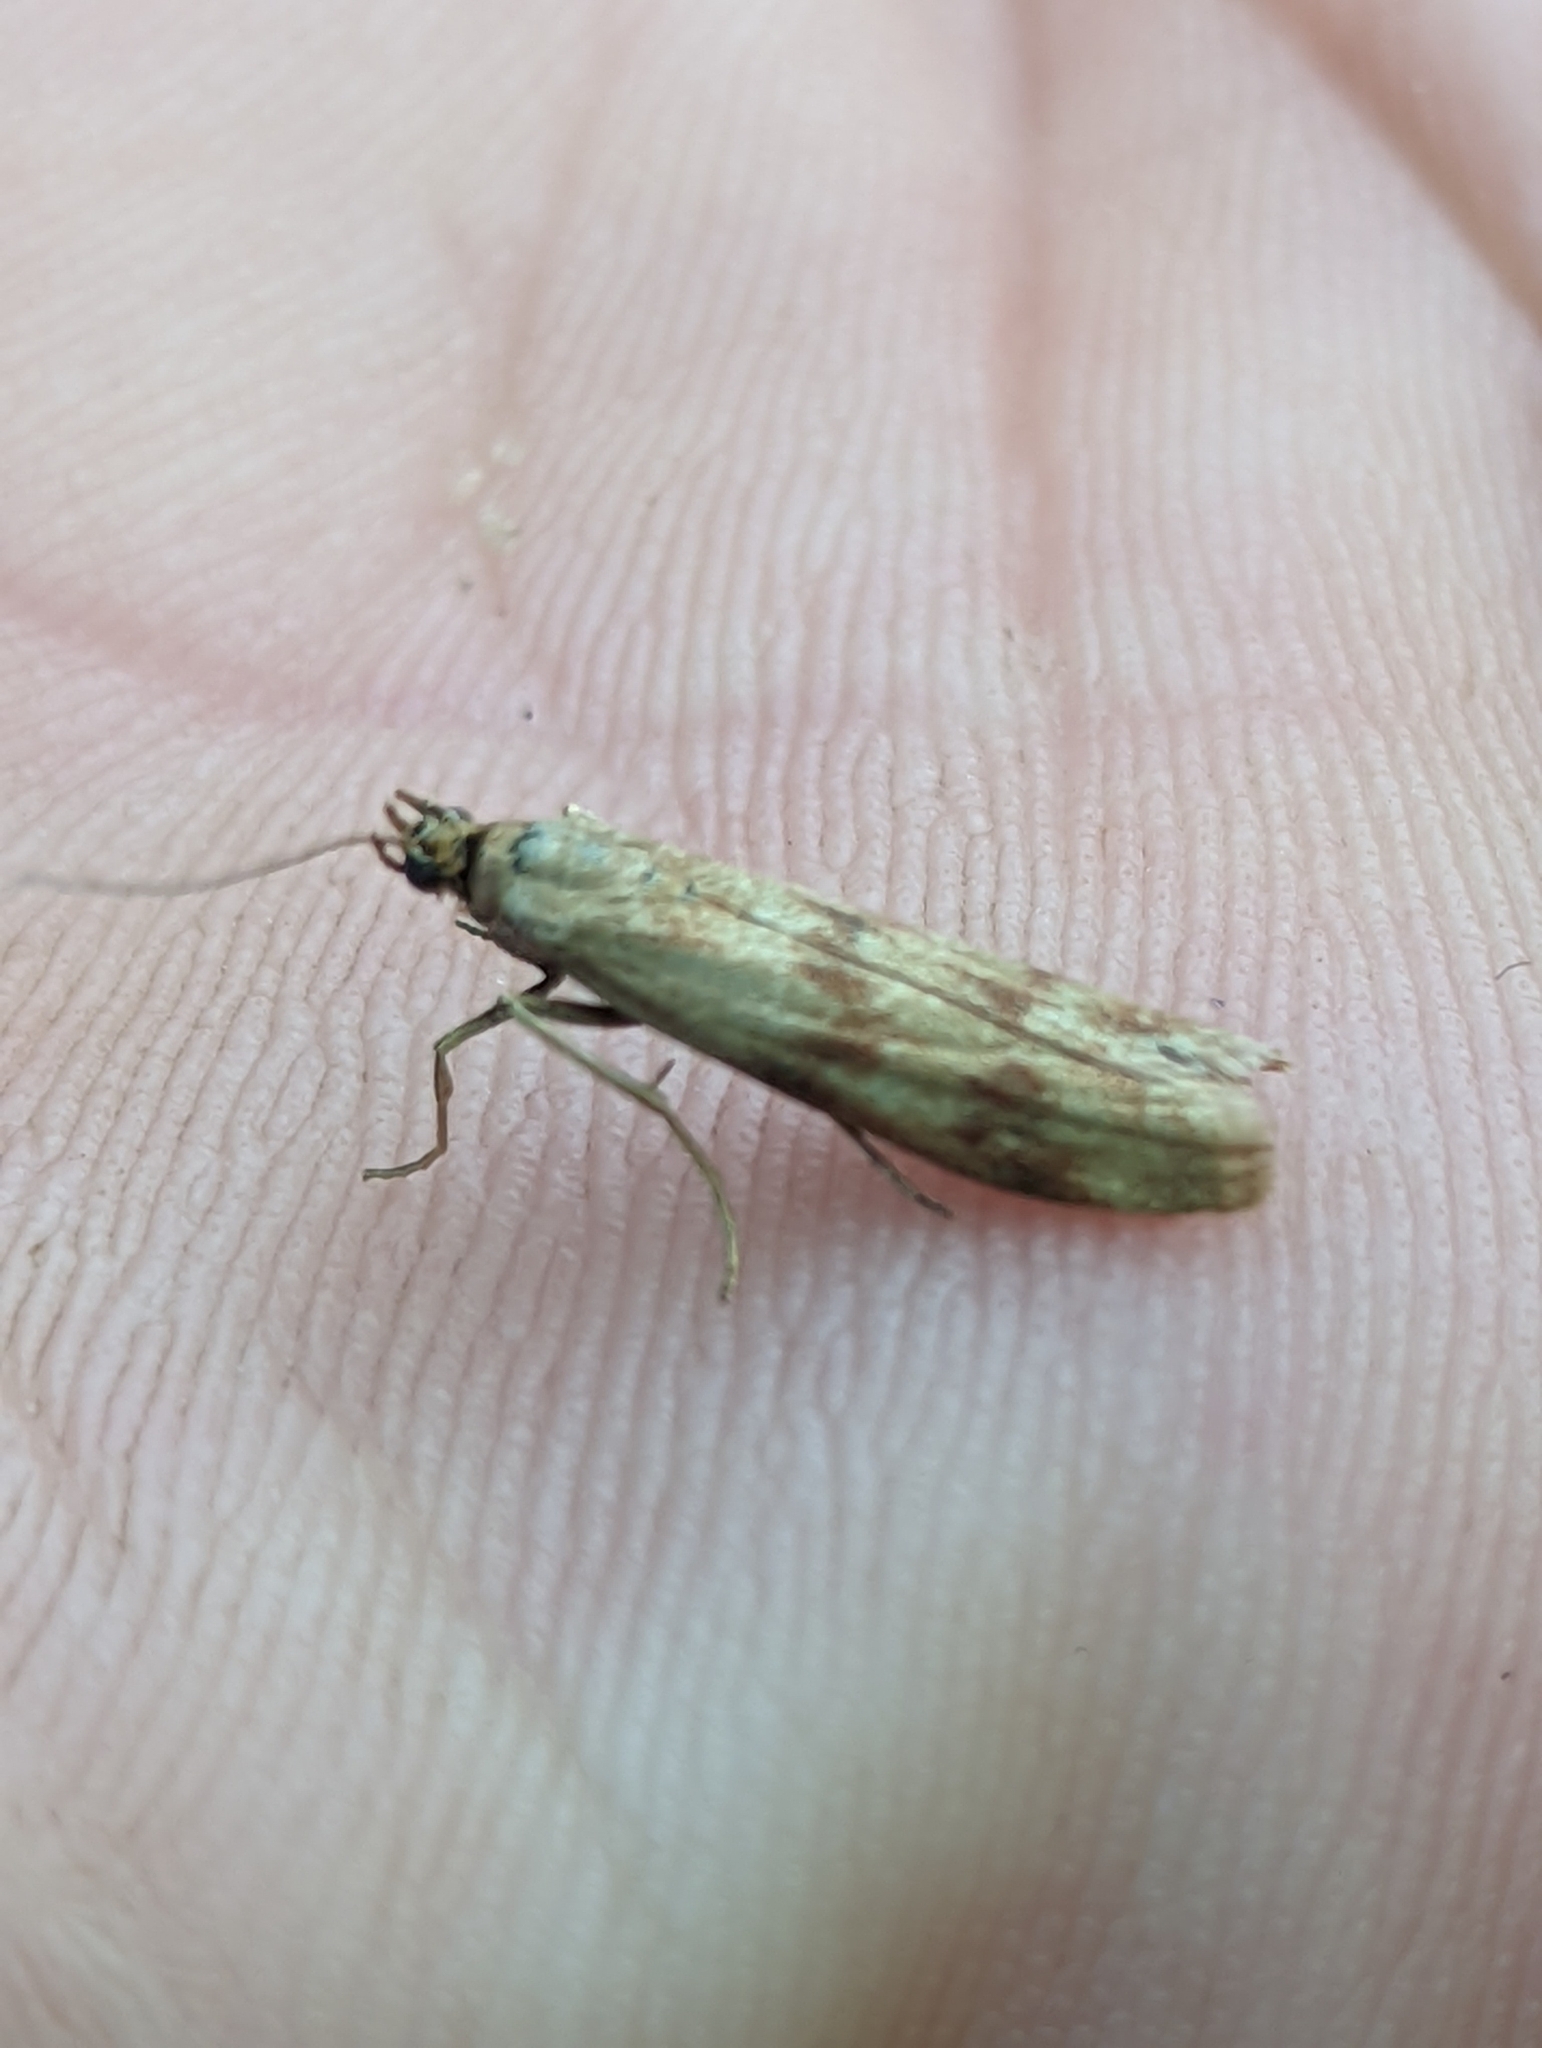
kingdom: Animalia
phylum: Arthropoda
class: Insecta
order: Lepidoptera
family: Pyralidae
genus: Homoeosoma
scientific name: Homoeosoma sinuella
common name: Twin-barred knot-horn
